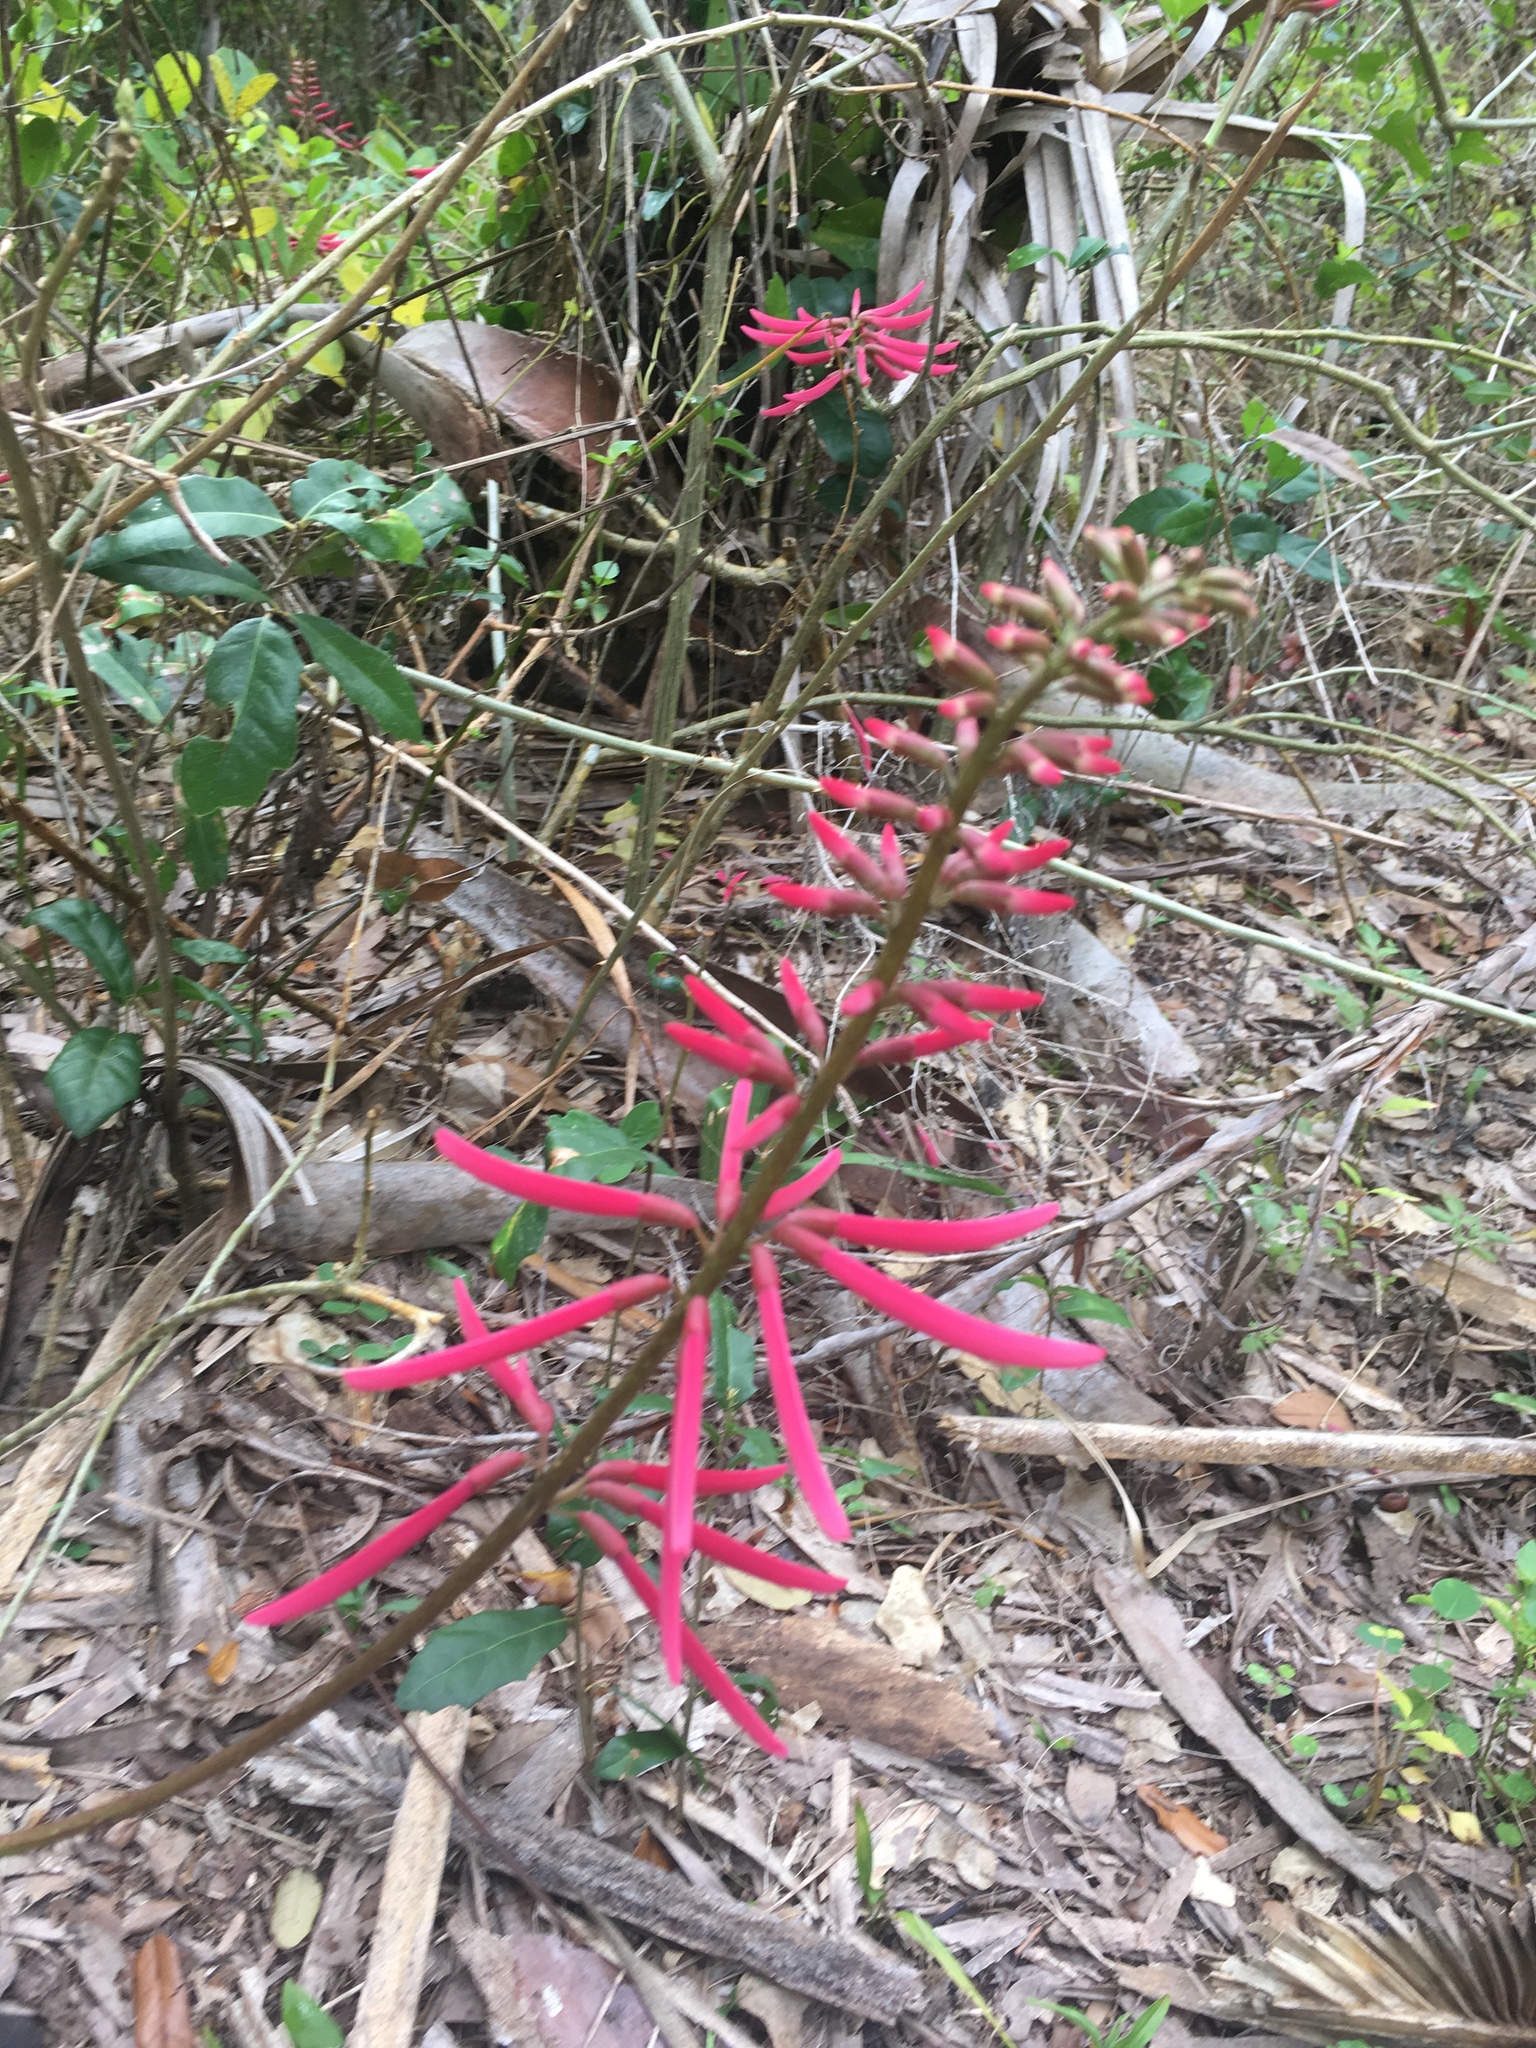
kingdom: Plantae
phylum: Tracheophyta
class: Magnoliopsida
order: Fabales
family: Fabaceae
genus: Erythrina
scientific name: Erythrina herbacea
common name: Coral-bean
